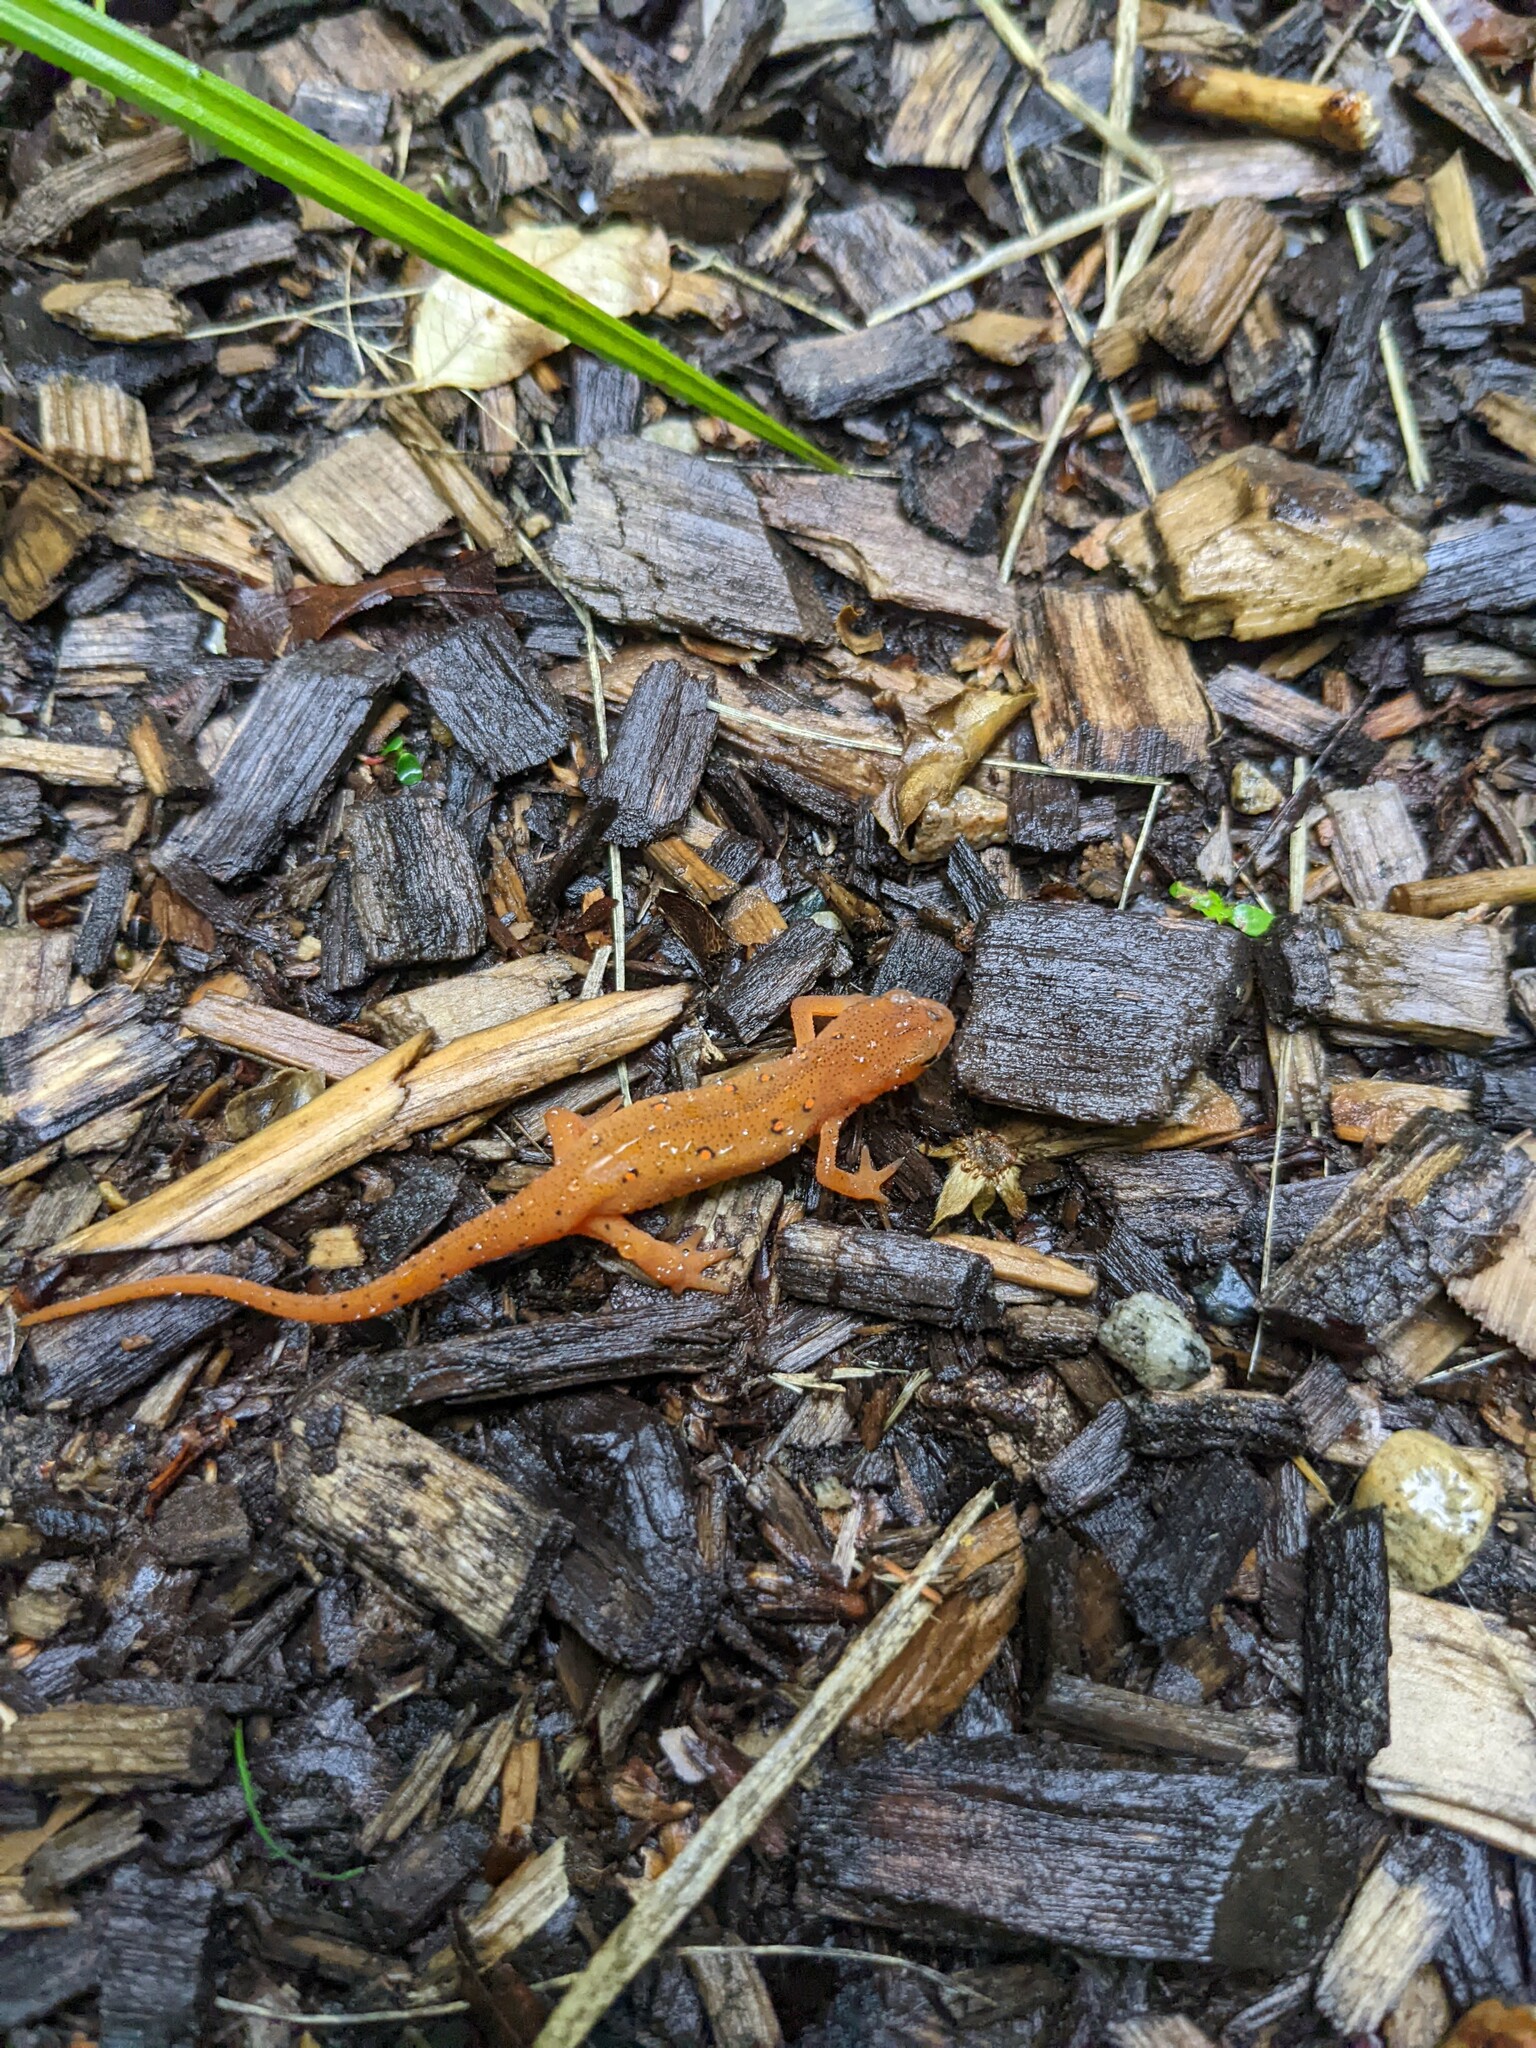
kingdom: Animalia
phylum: Chordata
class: Amphibia
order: Caudata
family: Salamandridae
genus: Notophthalmus
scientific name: Notophthalmus viridescens
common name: Eastern newt
